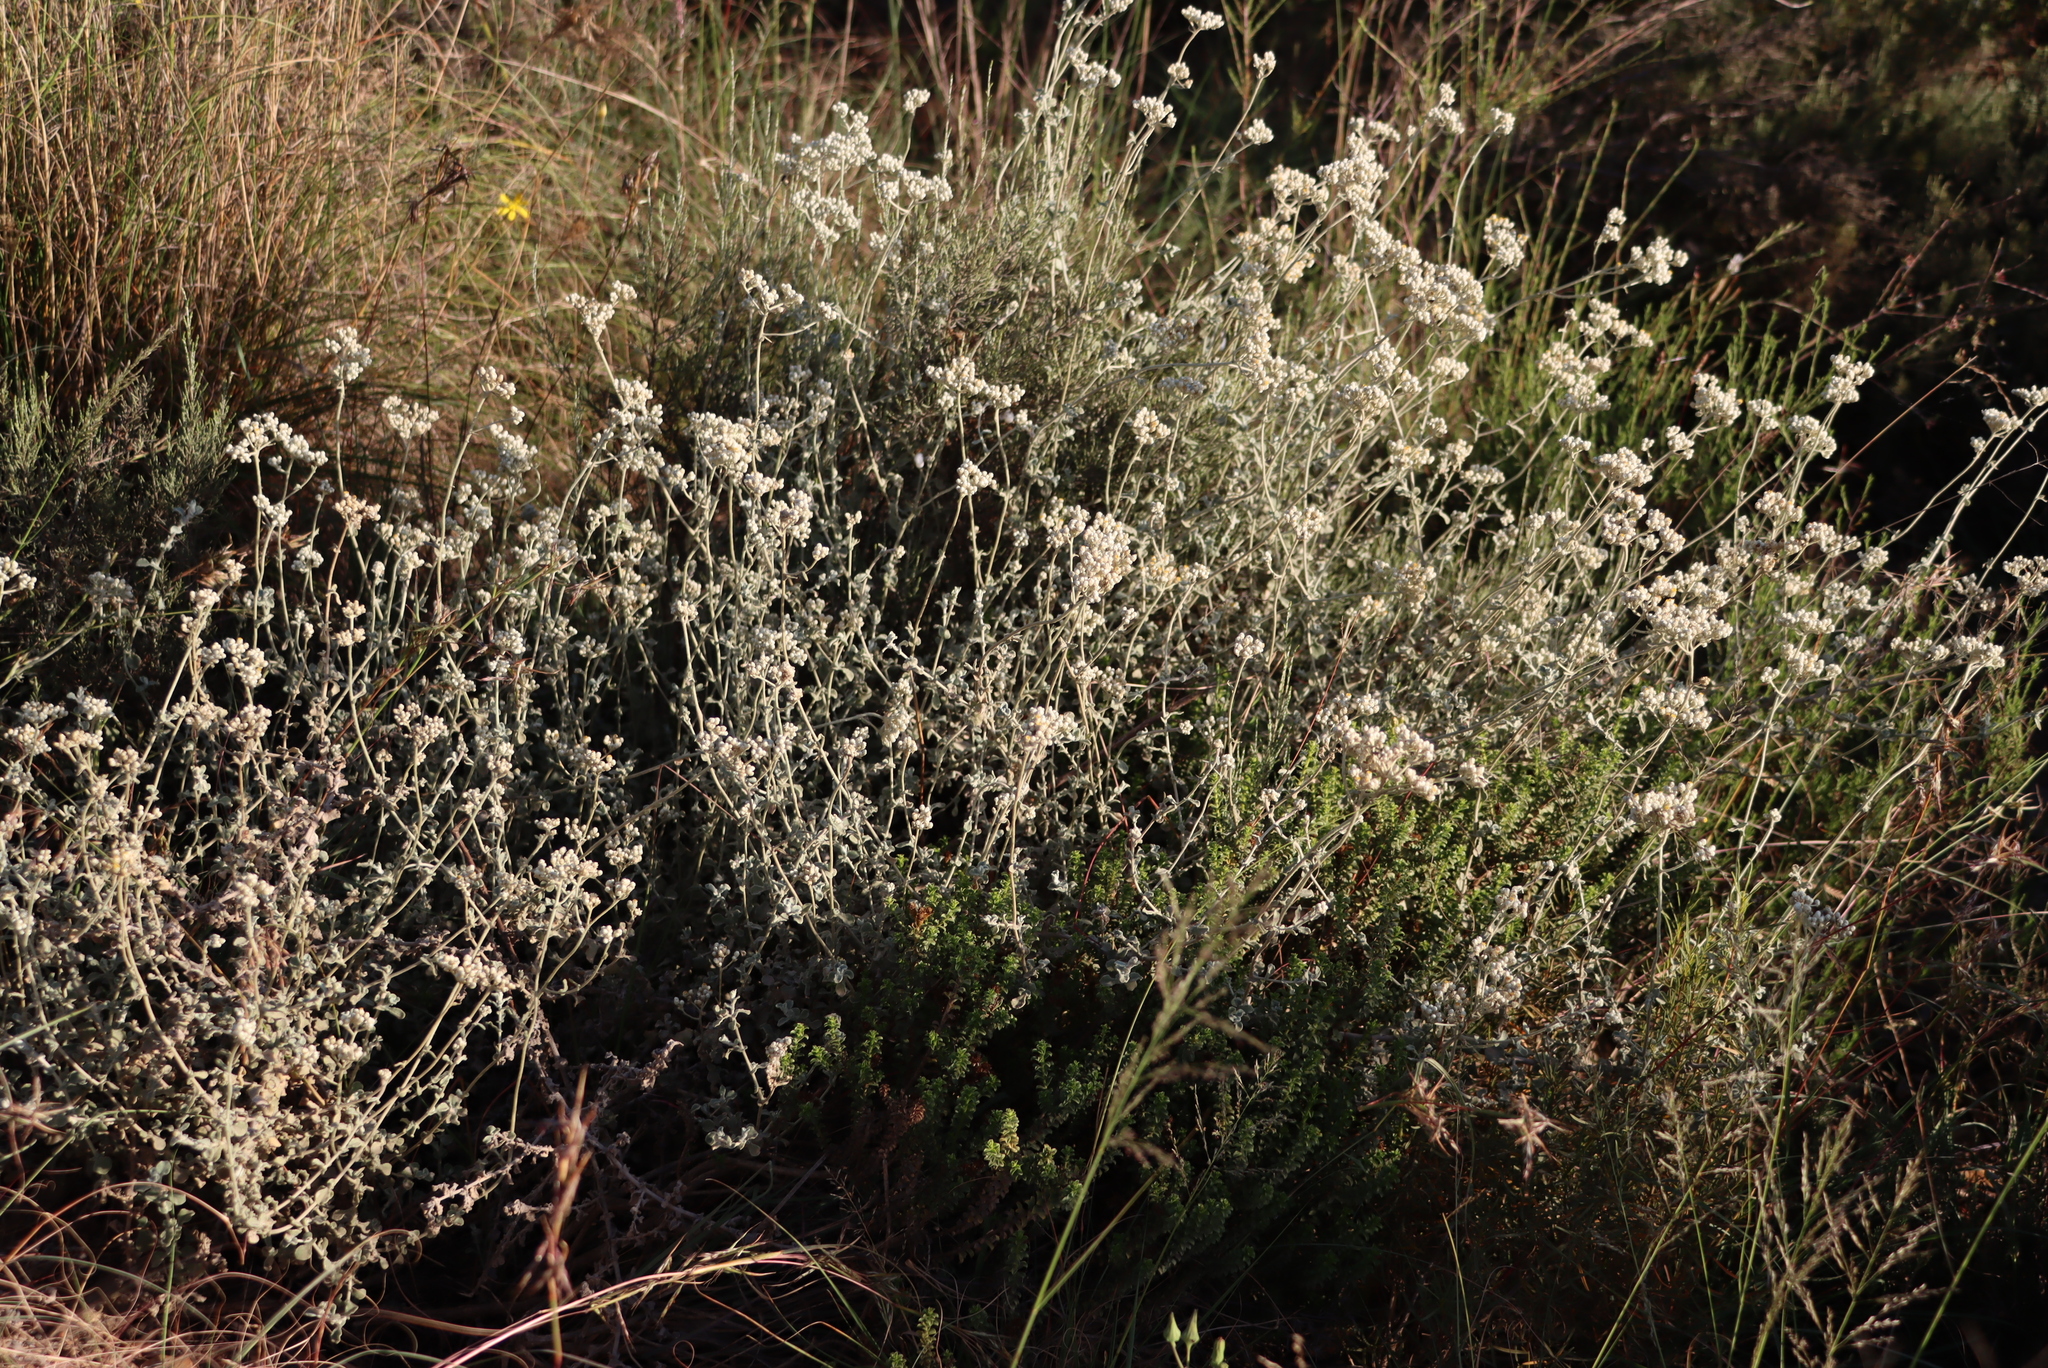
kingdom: Plantae
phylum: Tracheophyta
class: Magnoliopsida
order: Asterales
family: Asteraceae
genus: Helichrysum
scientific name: Helichrysum patulum
